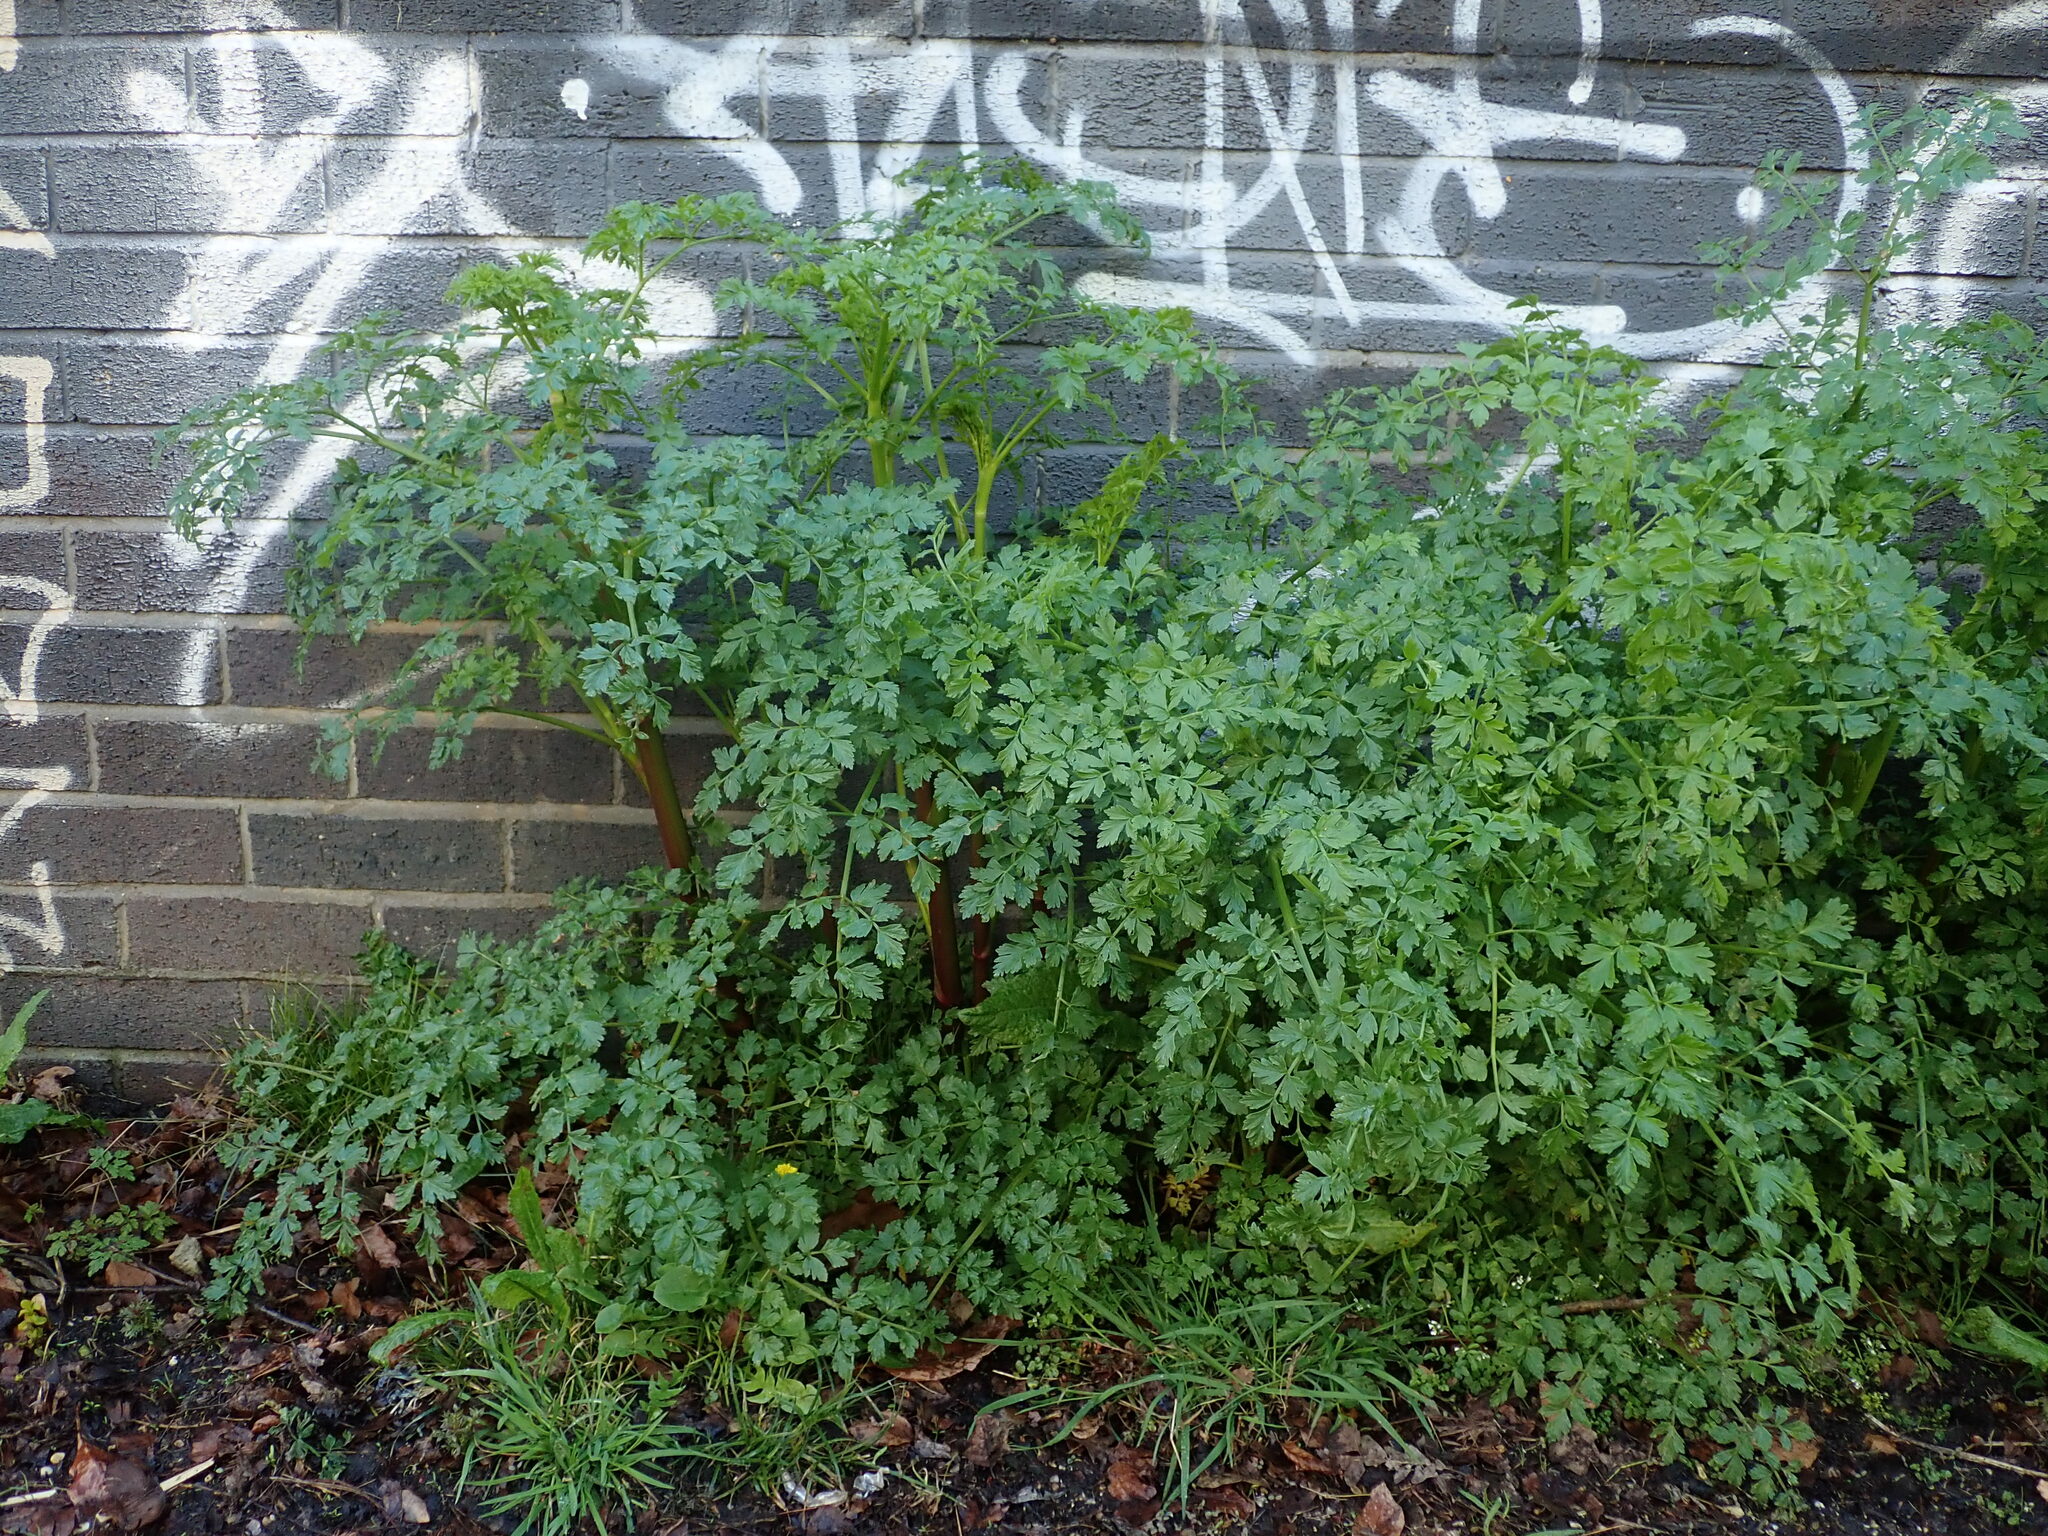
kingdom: Plantae
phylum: Tracheophyta
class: Magnoliopsida
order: Apiales
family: Apiaceae
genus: Oenanthe
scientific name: Oenanthe crocata
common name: Hemlock water-dropwort
